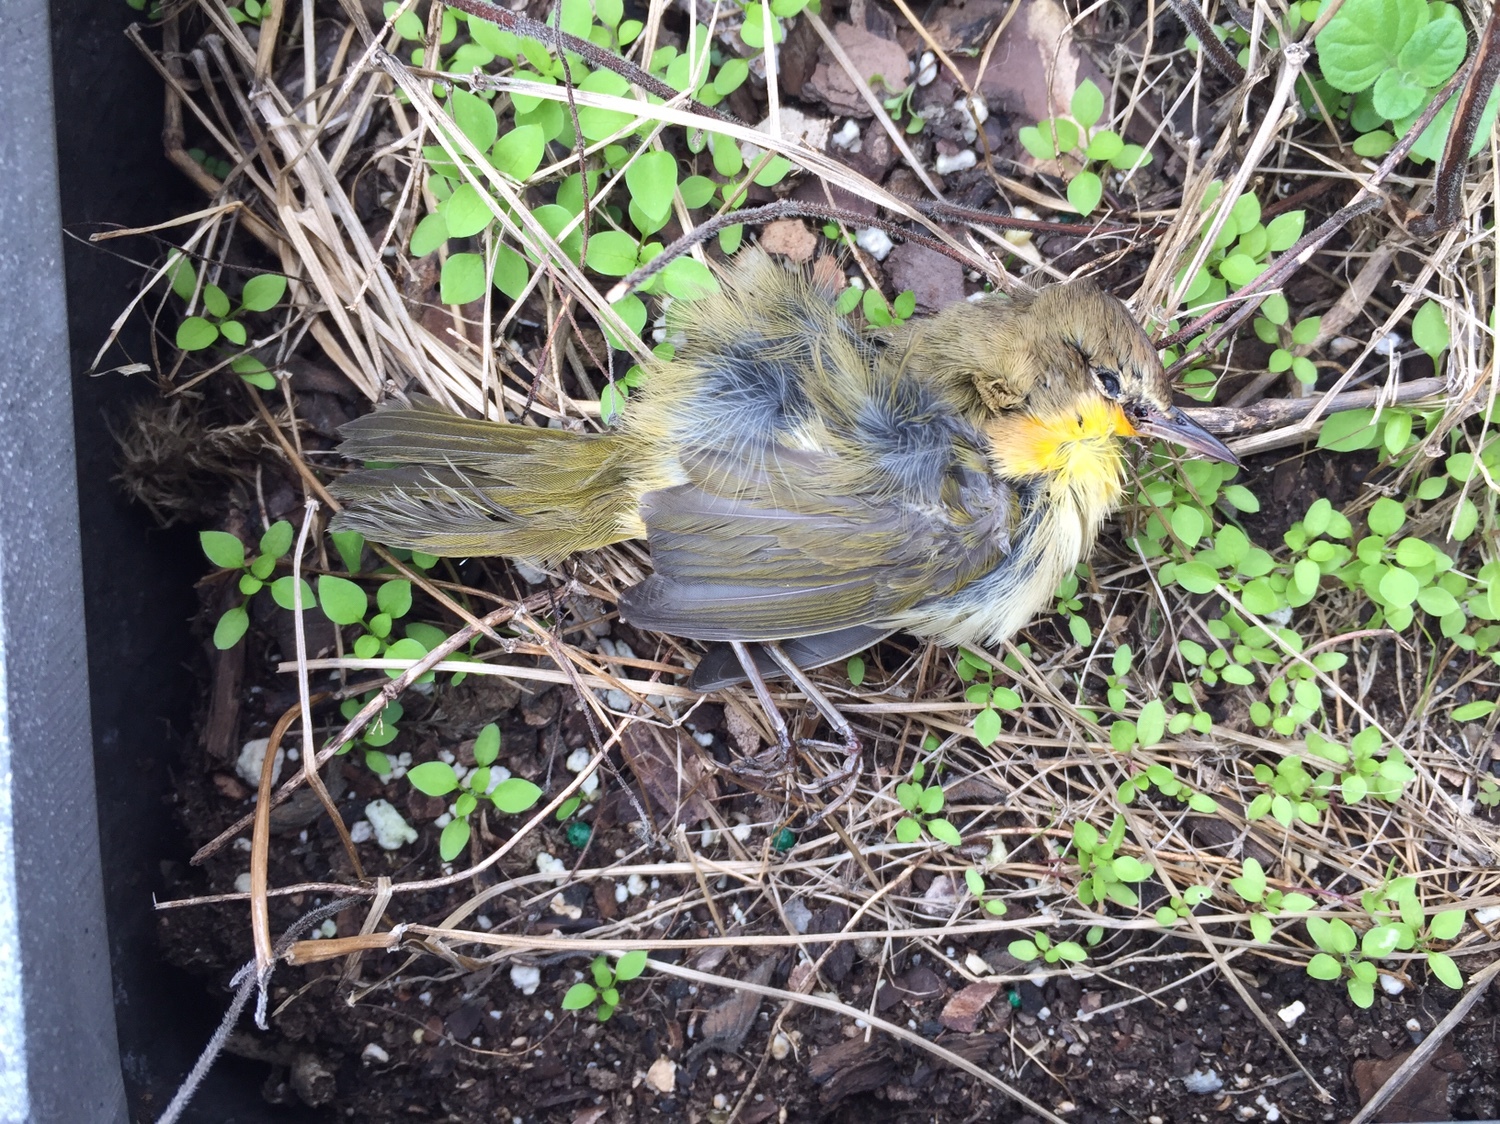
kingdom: Animalia
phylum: Chordata
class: Aves
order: Passeriformes
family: Parulidae
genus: Geothlypis
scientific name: Geothlypis trichas
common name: Common yellowthroat
